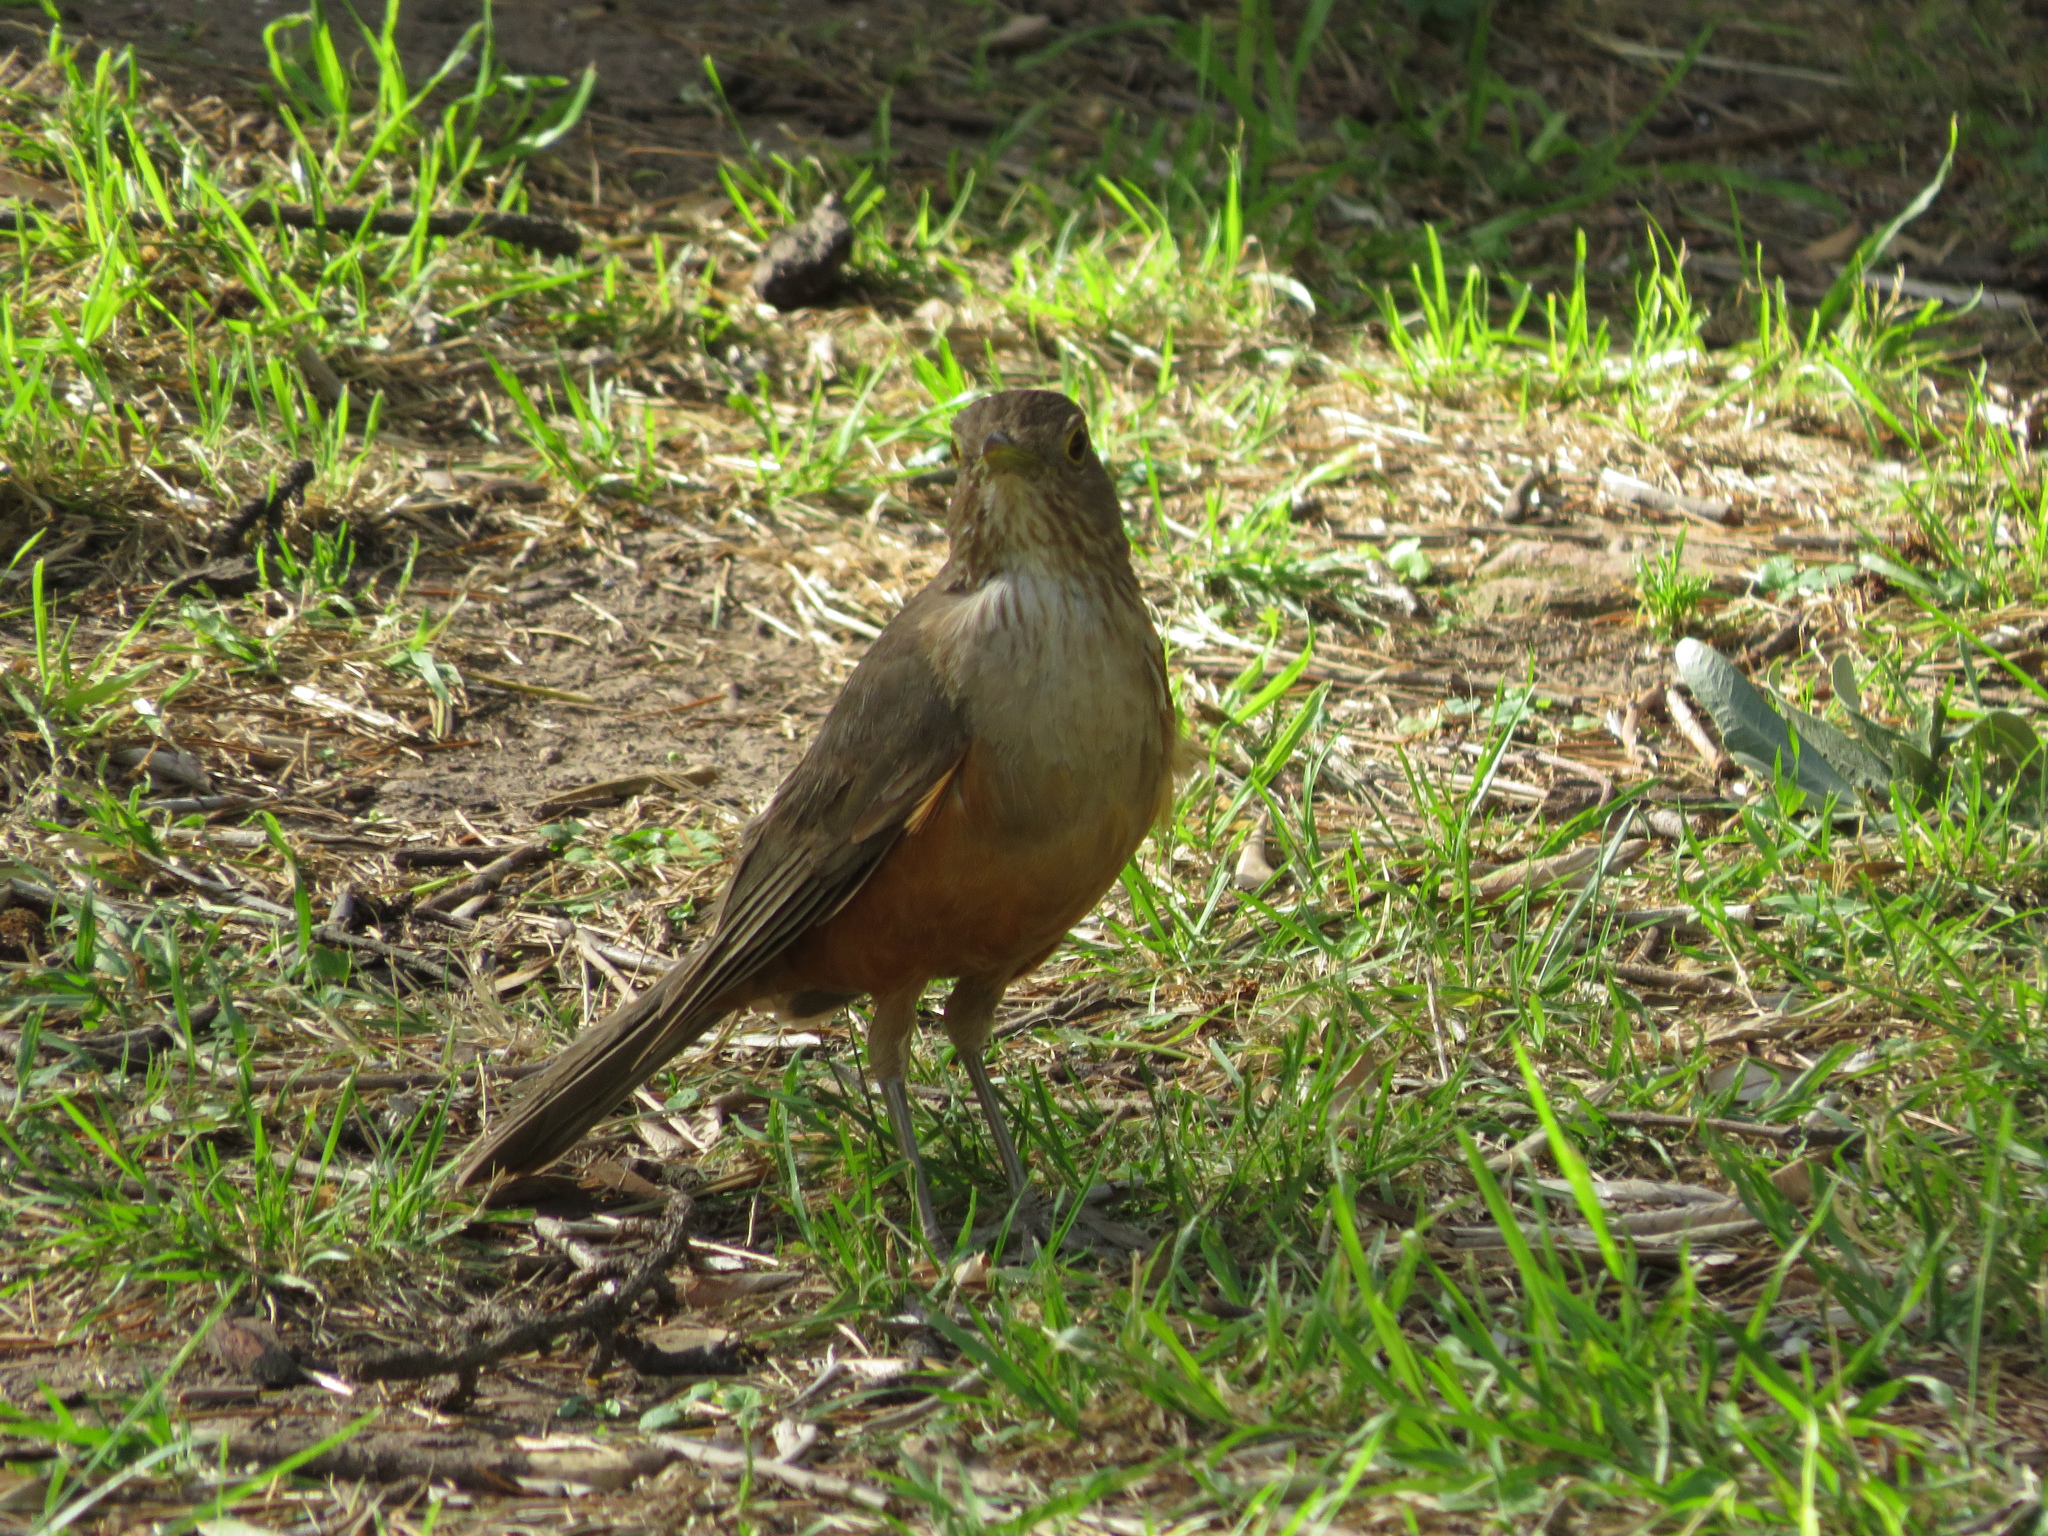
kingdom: Animalia
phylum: Chordata
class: Aves
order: Passeriformes
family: Turdidae
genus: Turdus
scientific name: Turdus rufiventris
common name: Rufous-bellied thrush
